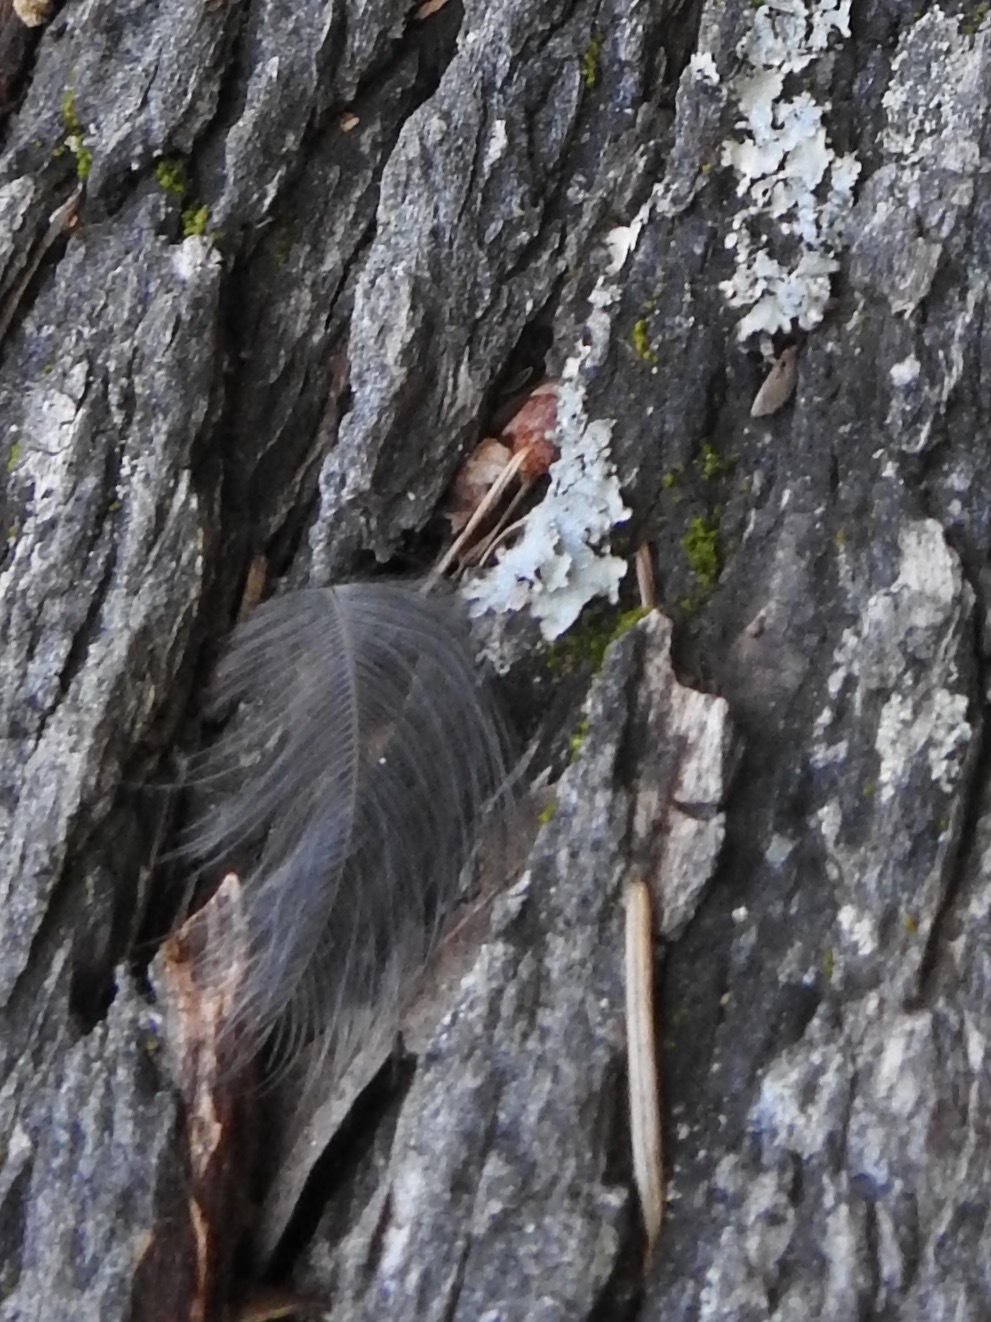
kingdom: Animalia
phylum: Chordata
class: Aves
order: Passeriformes
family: Passerellidae
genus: Pipilo
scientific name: Pipilo maculatus
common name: Spotted towhee
